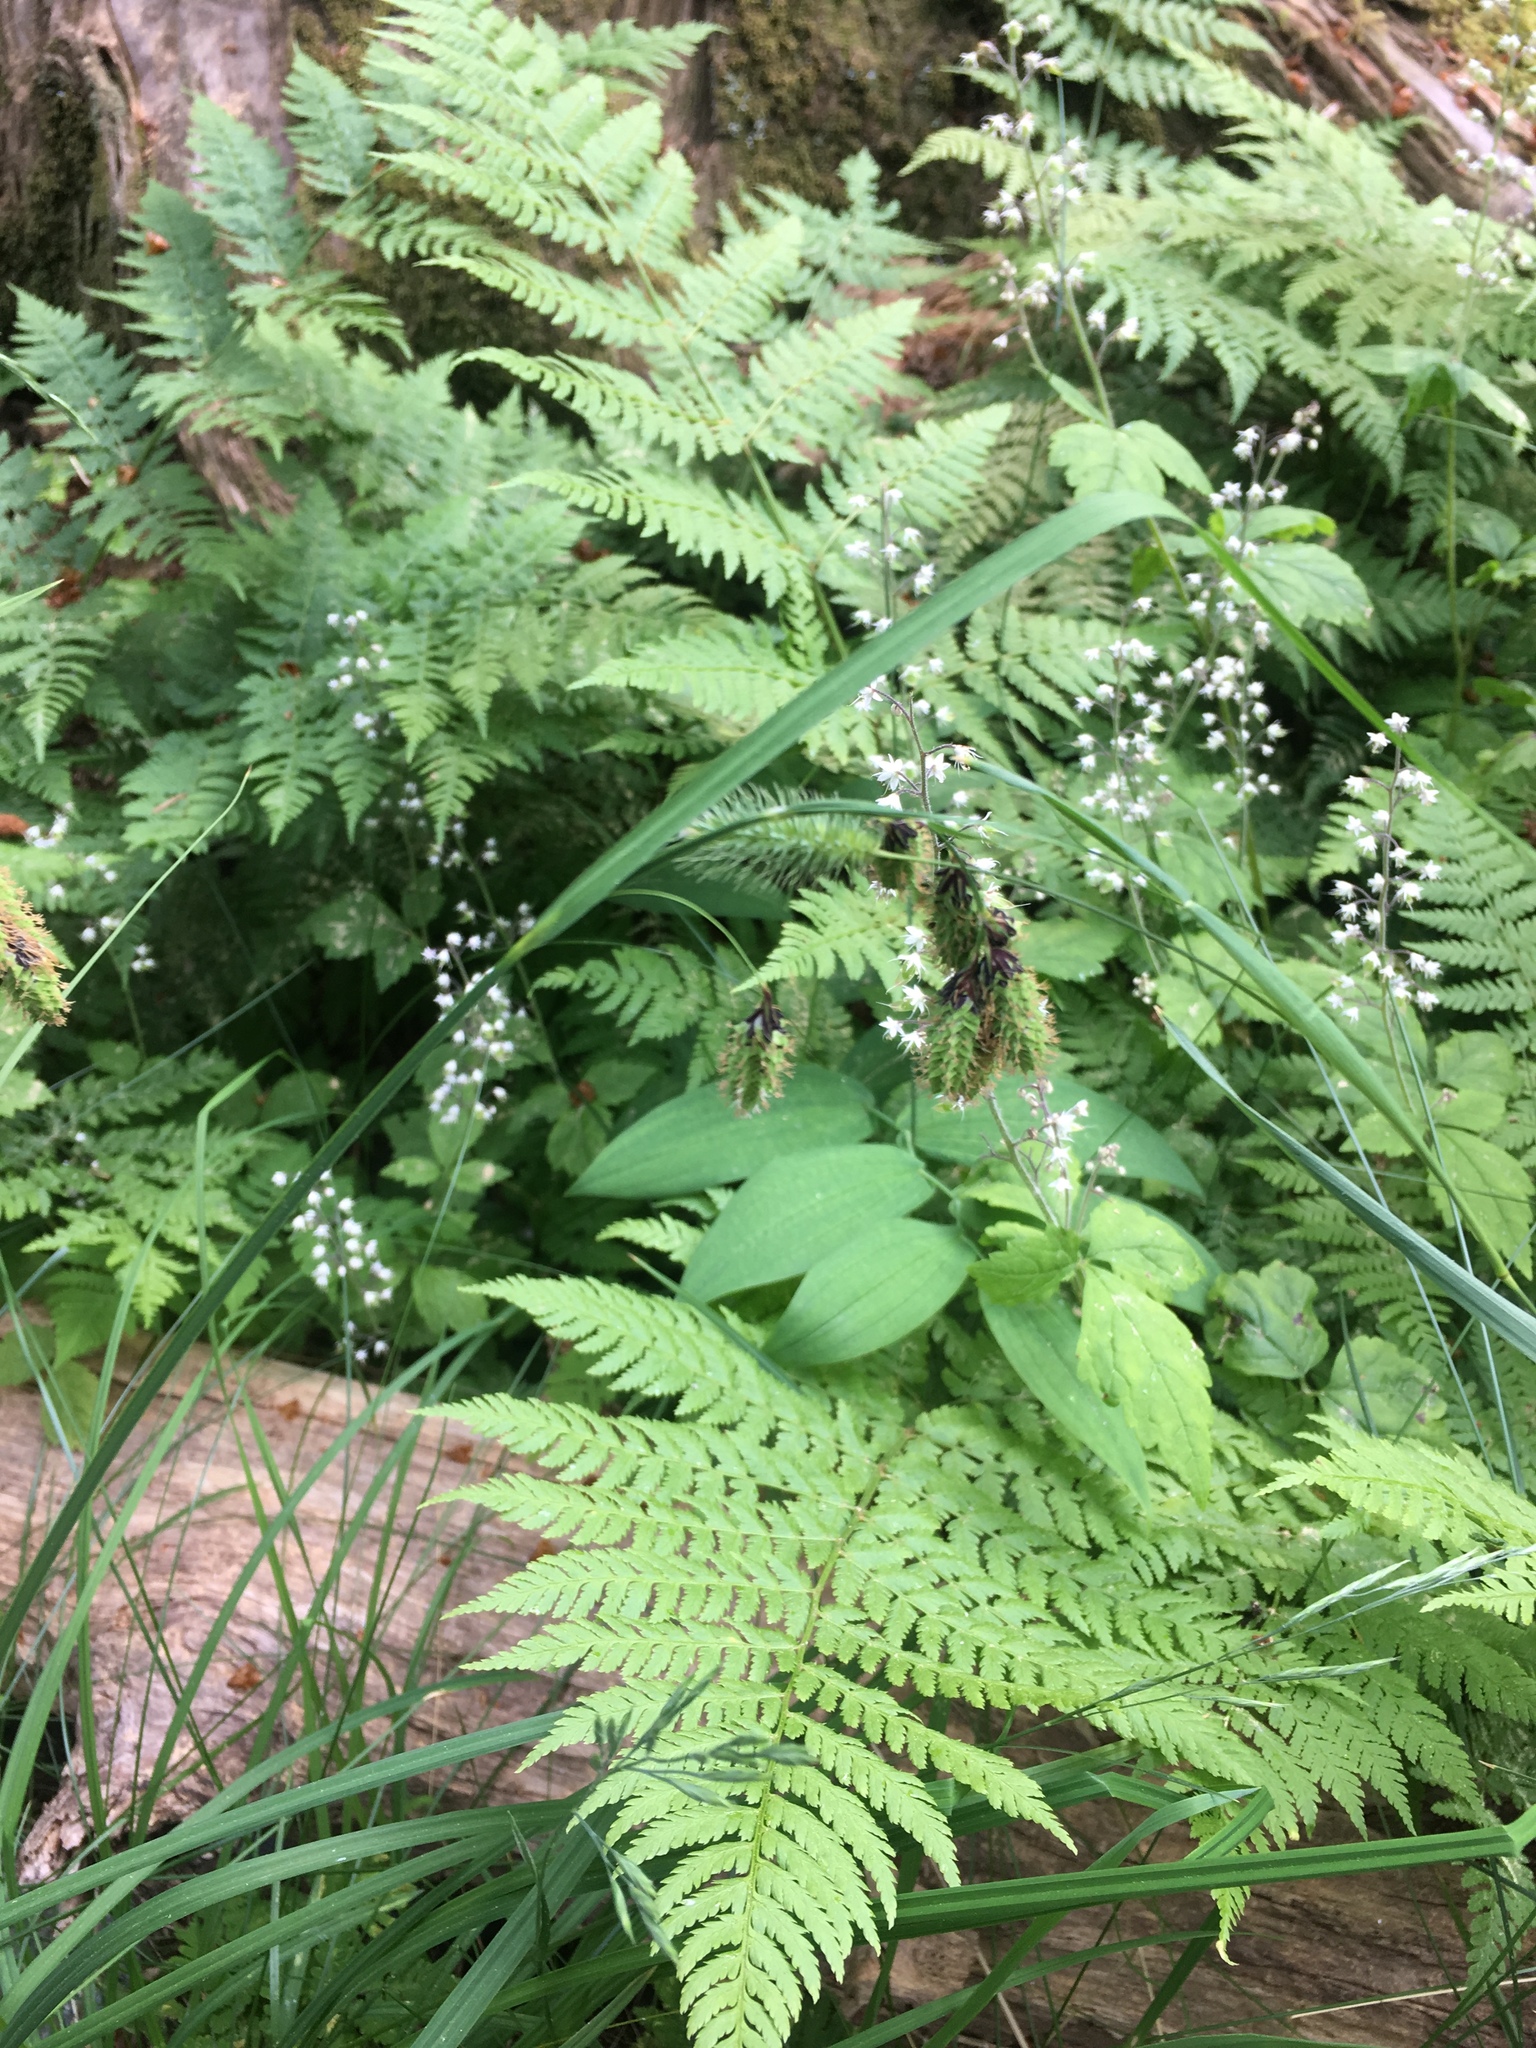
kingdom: Plantae
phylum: Tracheophyta
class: Liliopsida
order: Poales
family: Cyperaceae
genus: Carex
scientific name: Carex mertensii
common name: Mertens' sedge
